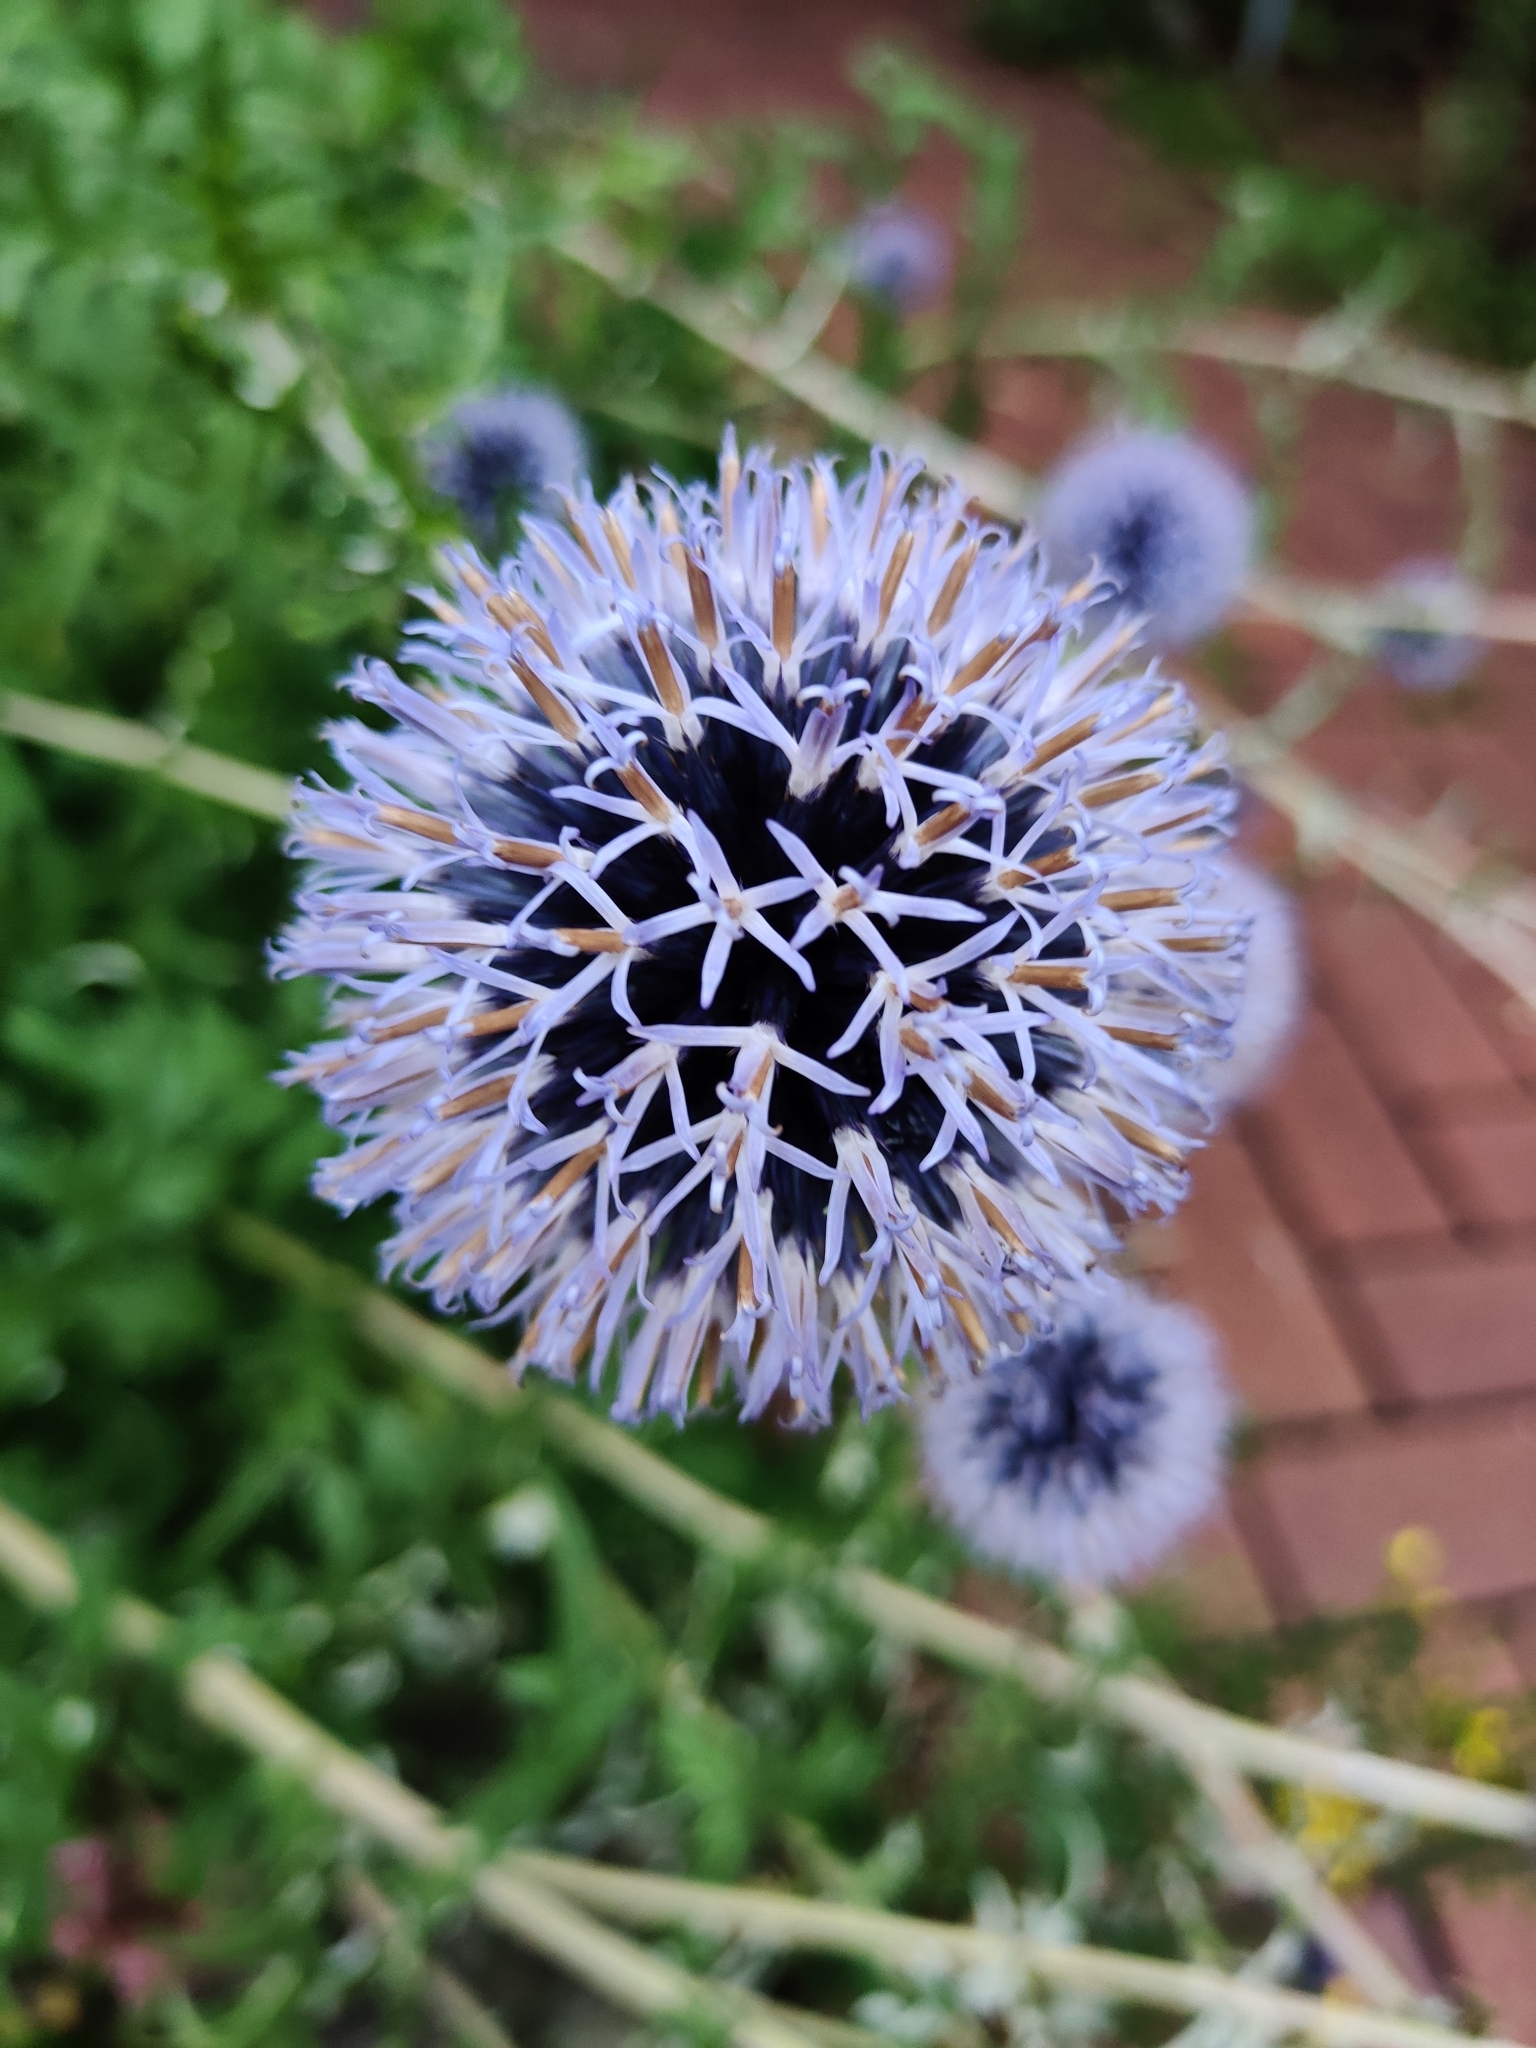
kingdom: Plantae
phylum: Tracheophyta
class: Magnoliopsida
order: Asterales
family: Asteraceae
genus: Echinops
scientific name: Echinops bannaticus
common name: Blue globe-thistle
